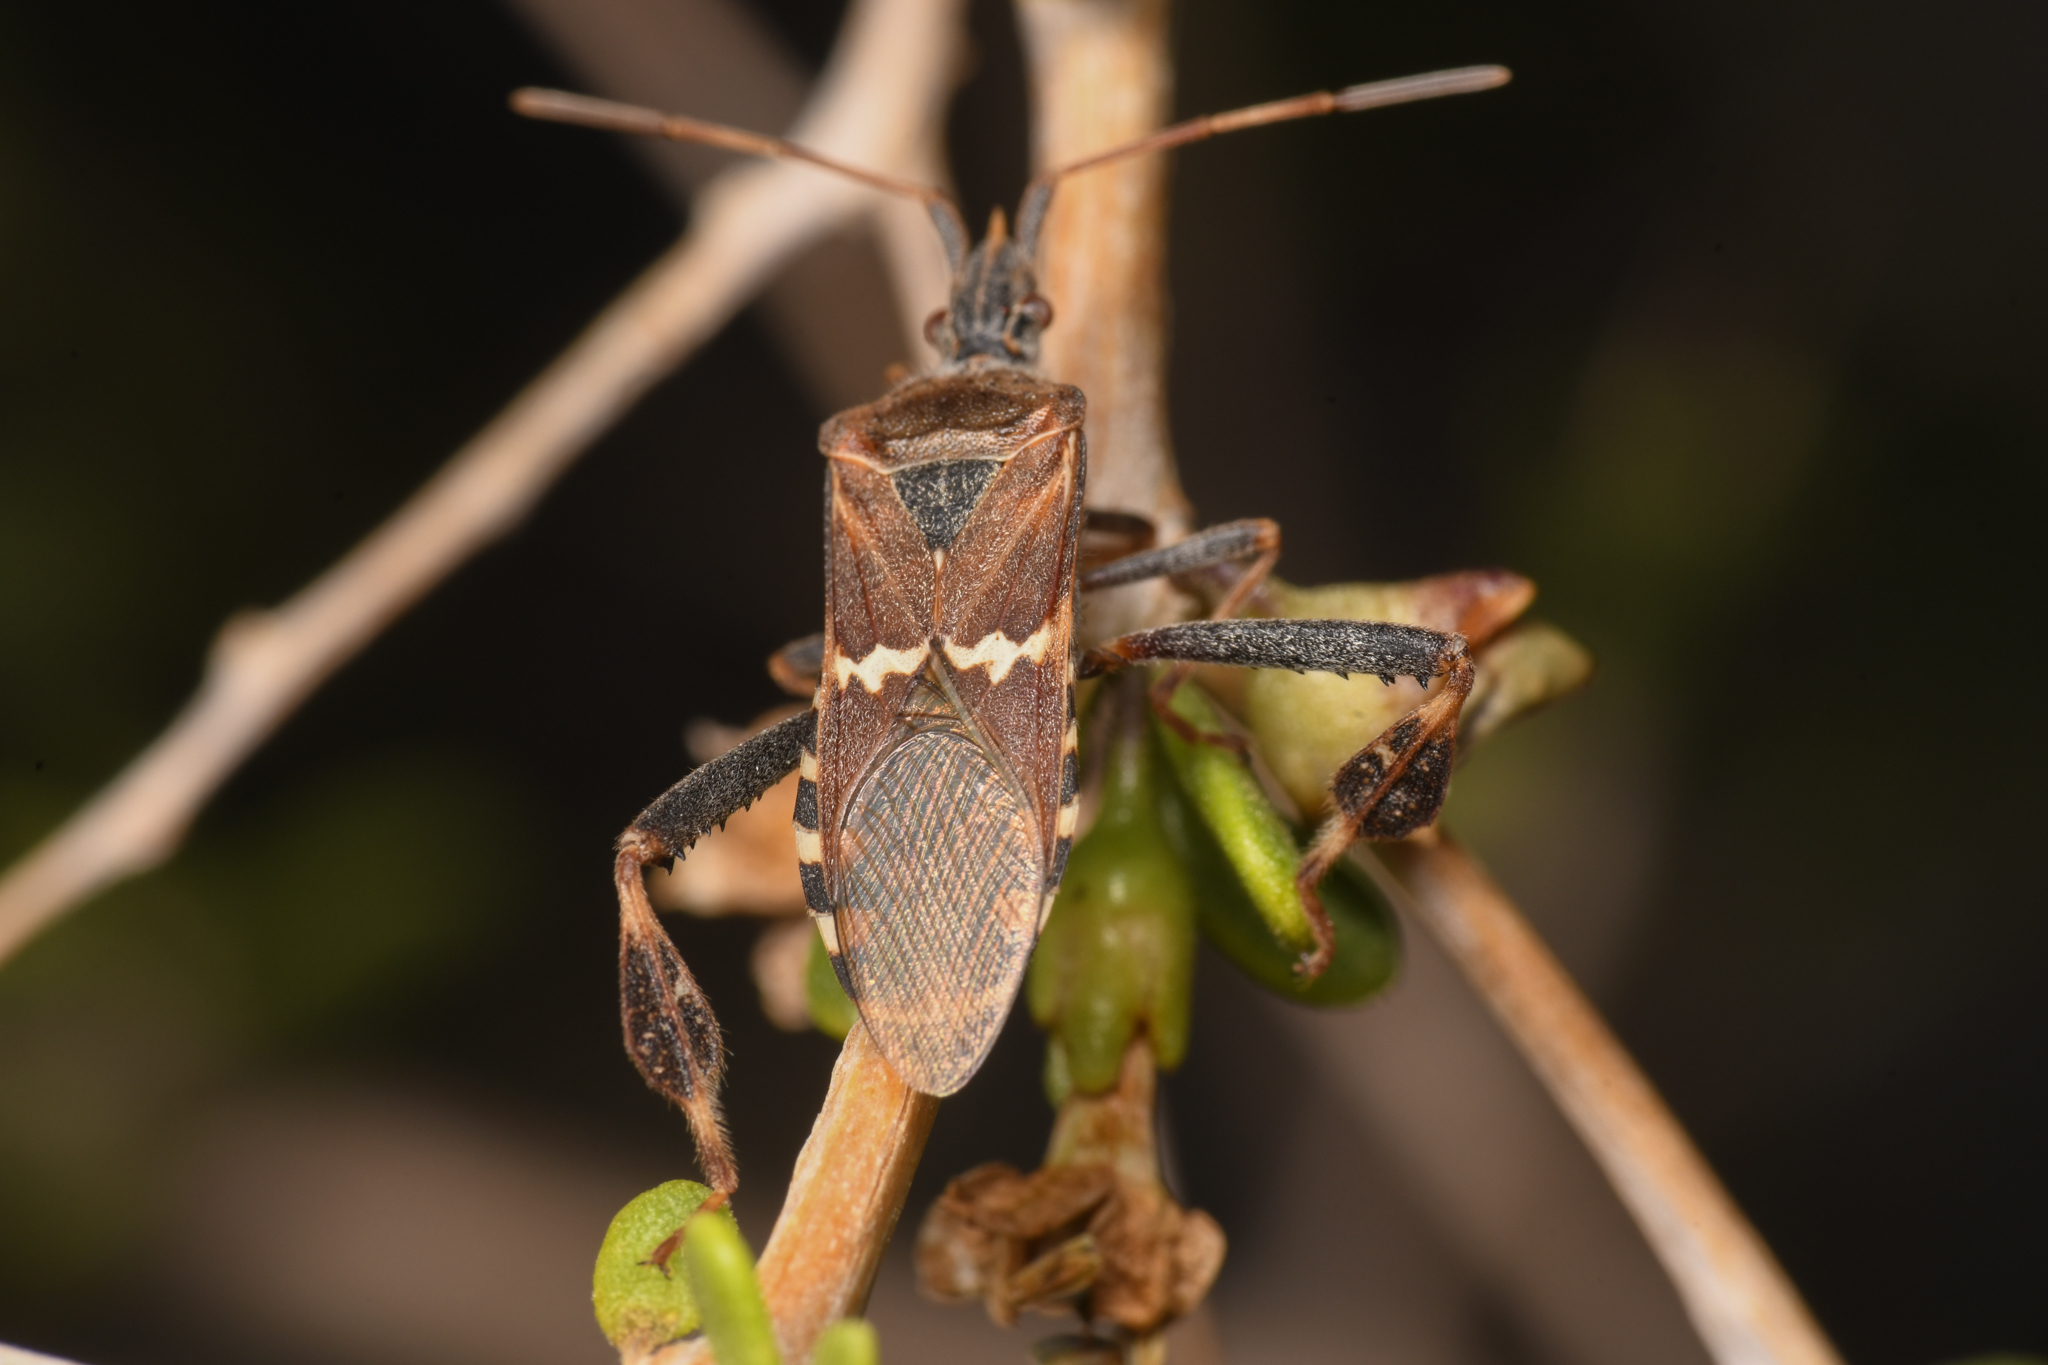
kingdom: Animalia
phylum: Arthropoda
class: Insecta
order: Hemiptera
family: Coreidae
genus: Leptoglossus
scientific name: Leptoglossus clypealis
